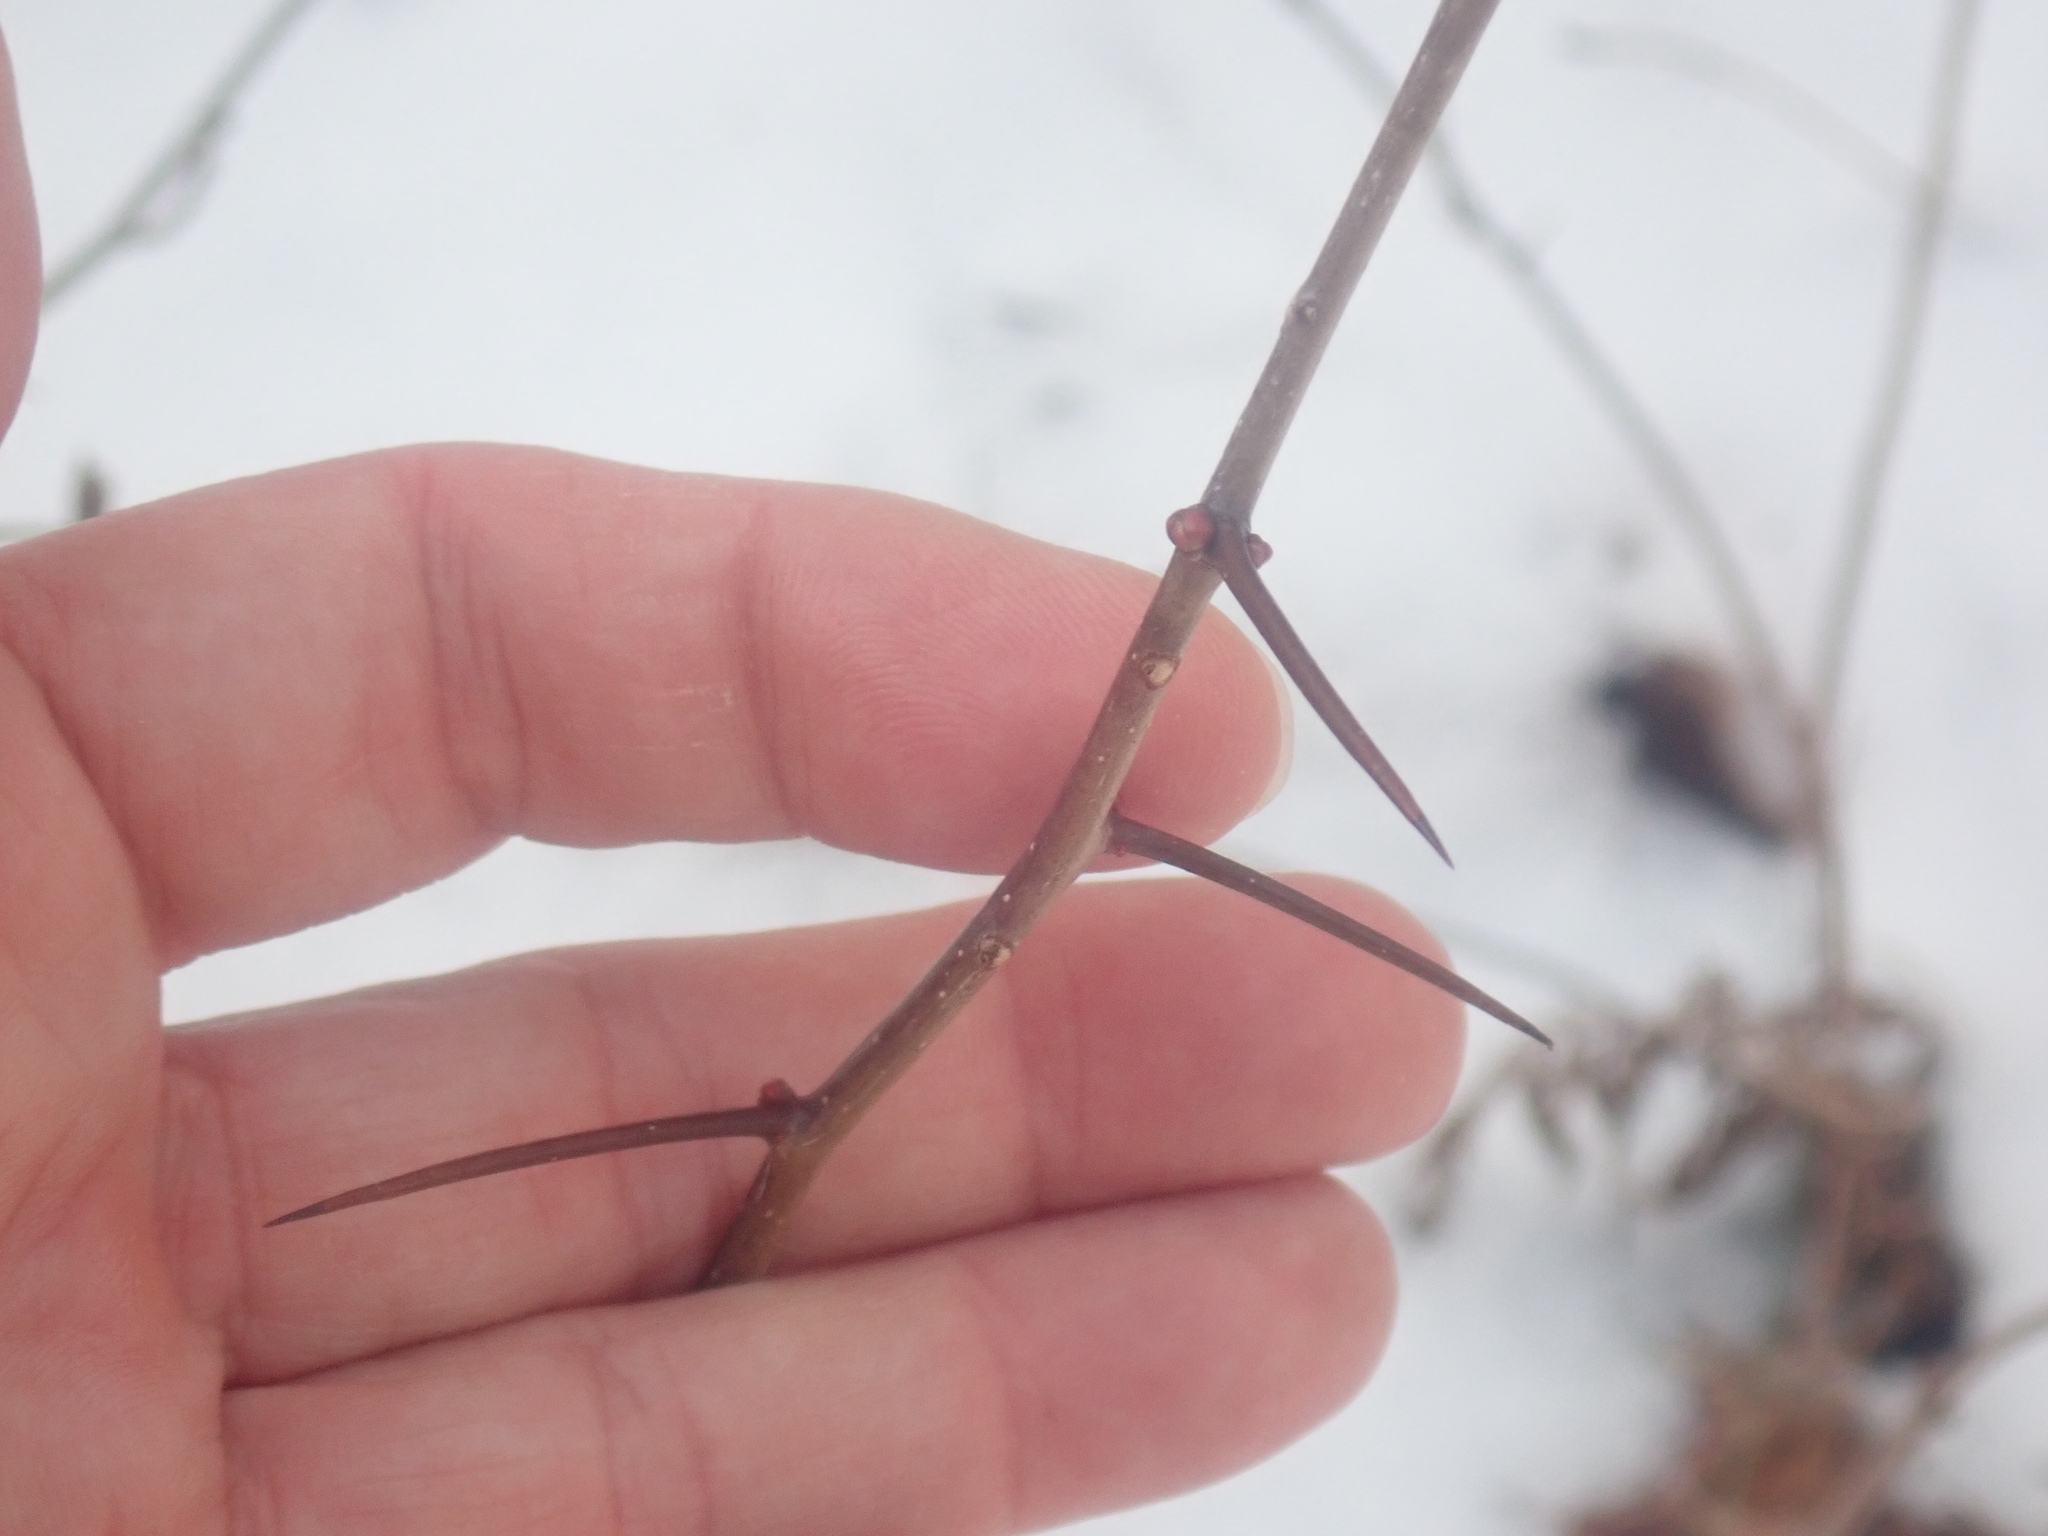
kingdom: Plantae
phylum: Tracheophyta
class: Magnoliopsida
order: Rosales
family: Rosaceae
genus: Crataegus
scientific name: Crataegus
